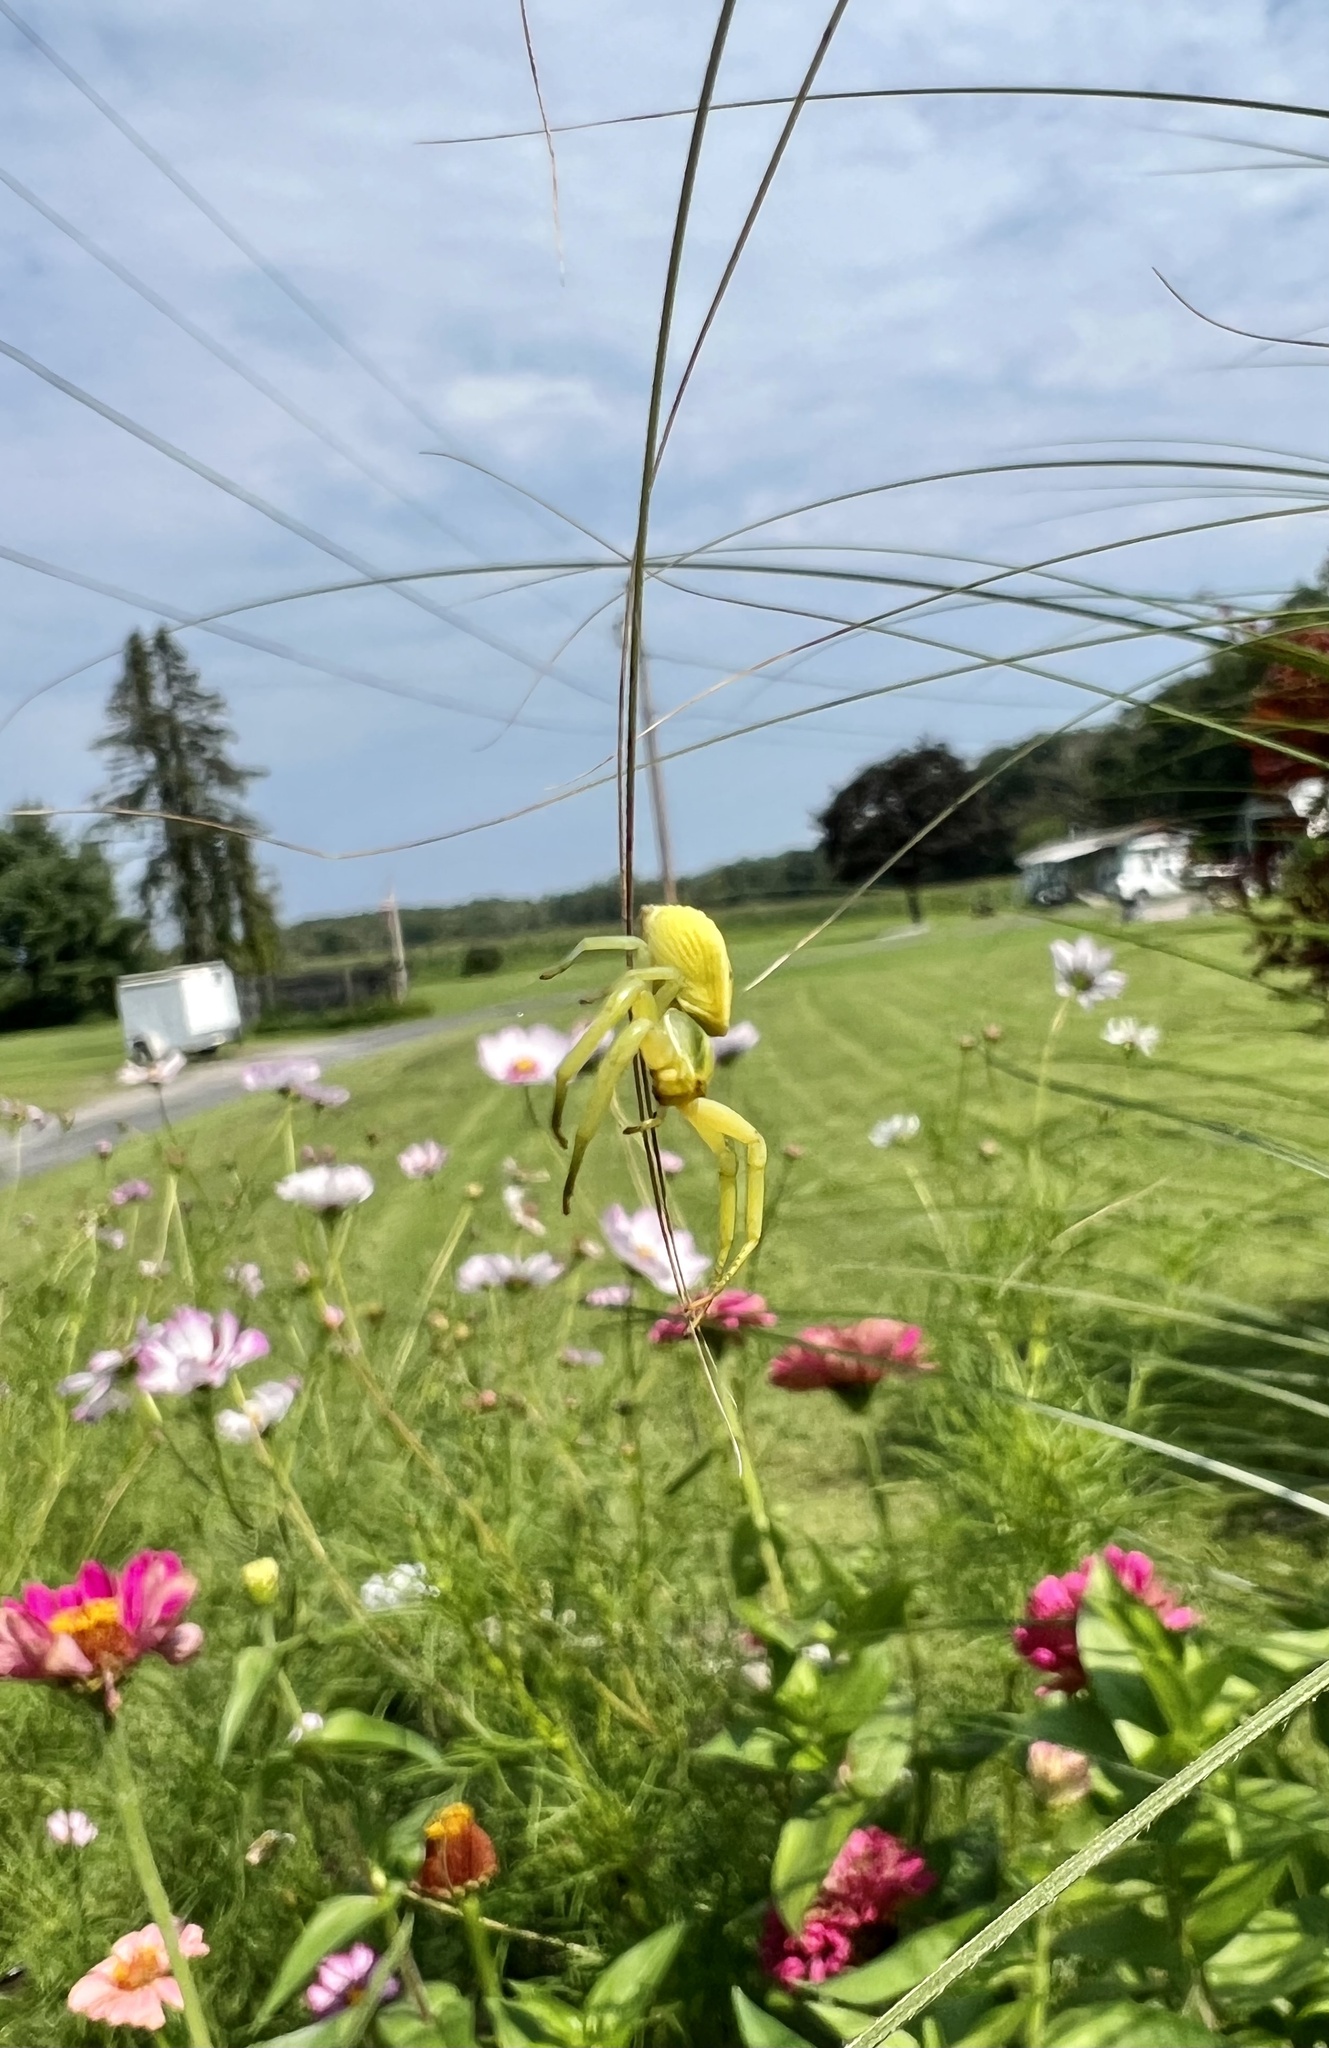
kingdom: Animalia
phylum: Arthropoda
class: Arachnida
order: Araneae
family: Thomisidae
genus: Misumenoides
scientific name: Misumenoides formosipes
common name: White-banded crab spider
